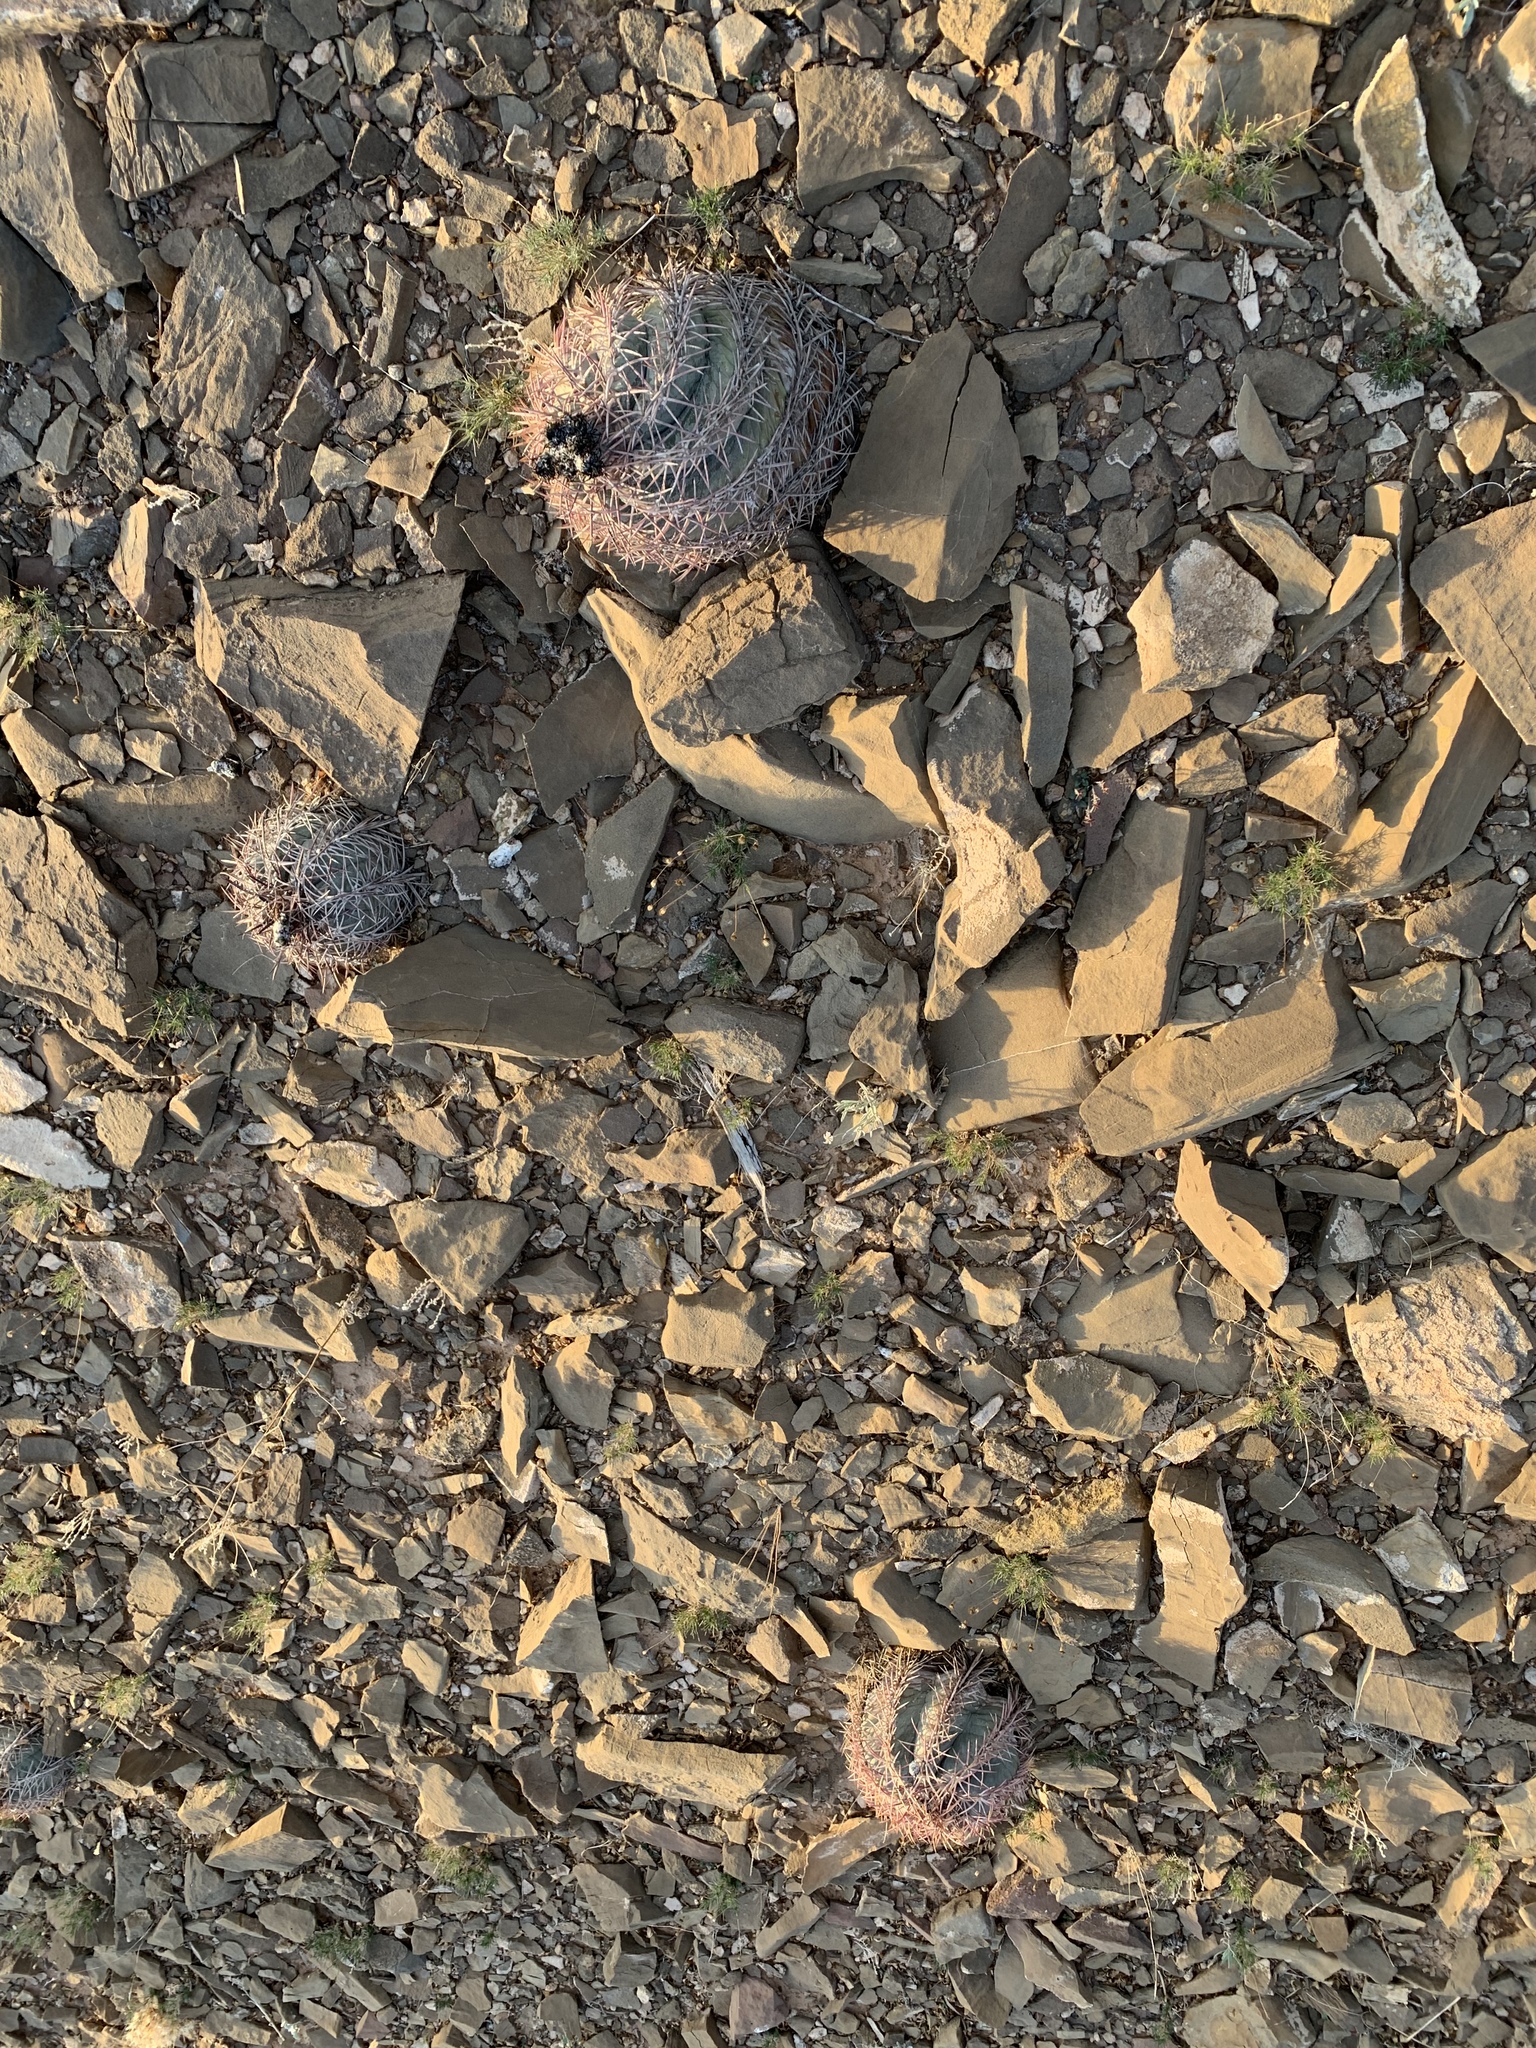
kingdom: Plantae
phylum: Tracheophyta
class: Magnoliopsida
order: Caryophyllales
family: Cactaceae
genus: Echinocactus
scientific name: Echinocactus horizonthalonius
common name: Devilshead
